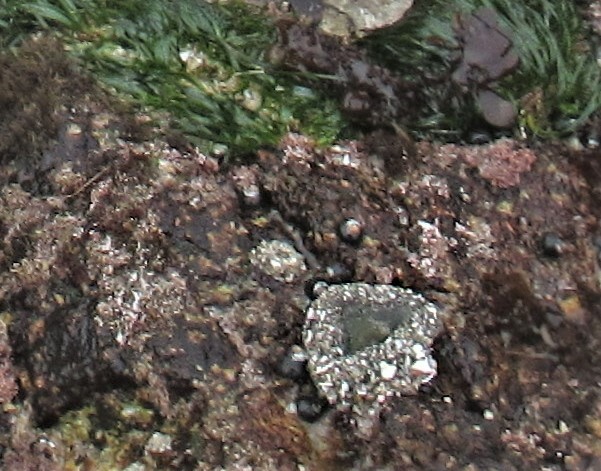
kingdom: Animalia
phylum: Mollusca
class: Gastropoda
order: Trochida
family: Tegulidae
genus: Tegula
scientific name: Tegula funebralis
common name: Black tegula
